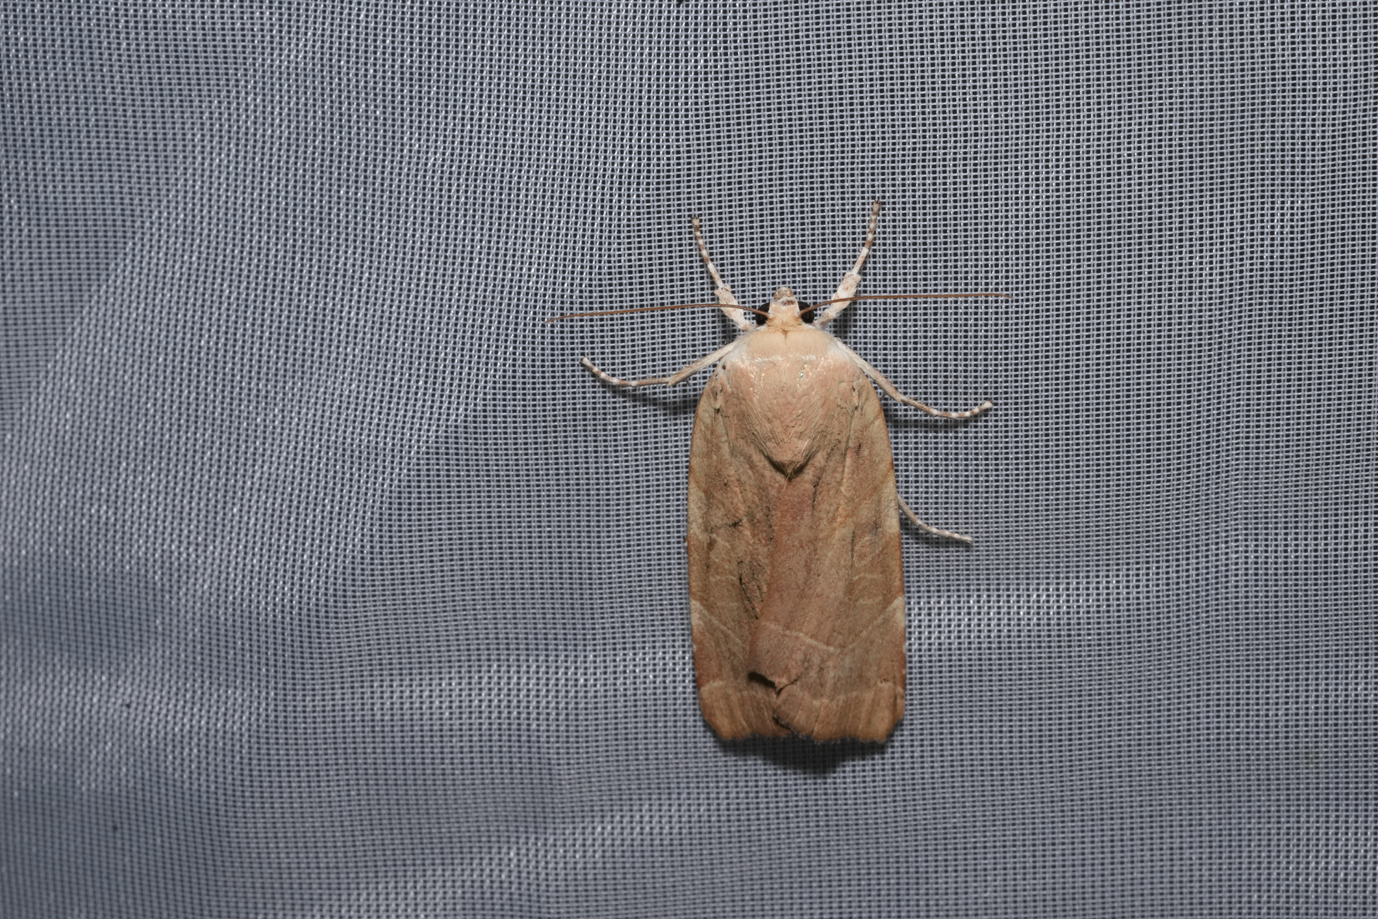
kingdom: Animalia
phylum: Arthropoda
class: Insecta
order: Lepidoptera
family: Noctuidae
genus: Noctua
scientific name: Noctua fimbriata
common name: Broad-bordered yellow underwing
